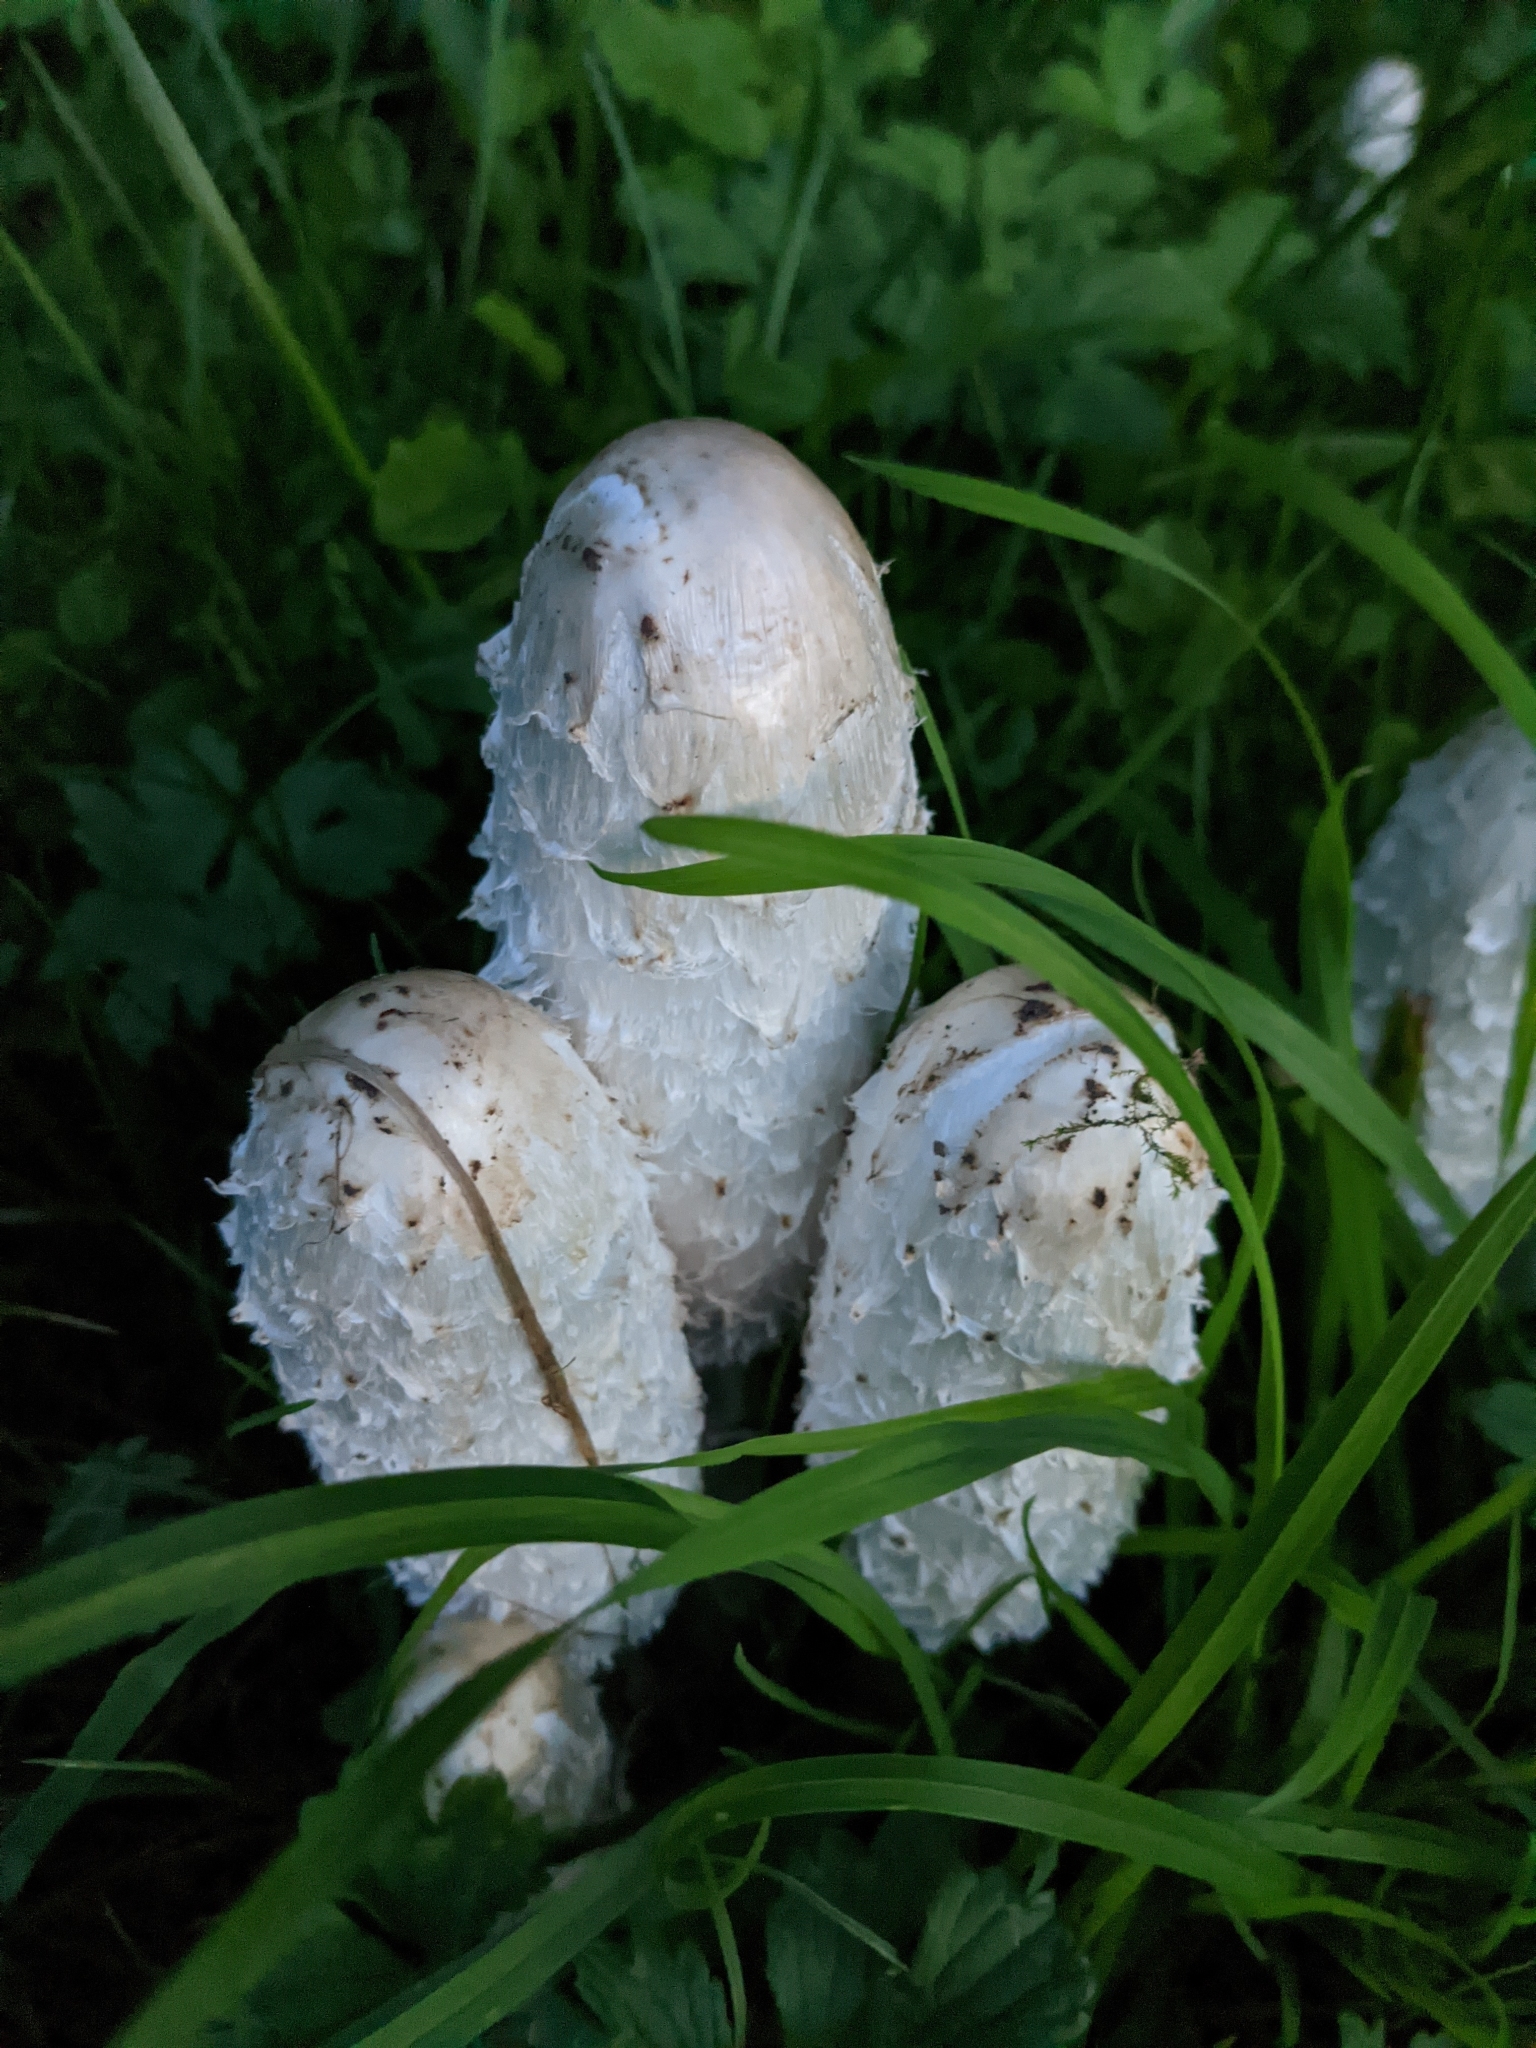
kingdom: Fungi
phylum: Basidiomycota
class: Agaricomycetes
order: Agaricales
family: Agaricaceae
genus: Coprinus
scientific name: Coprinus comatus
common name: Lawyer's wig
